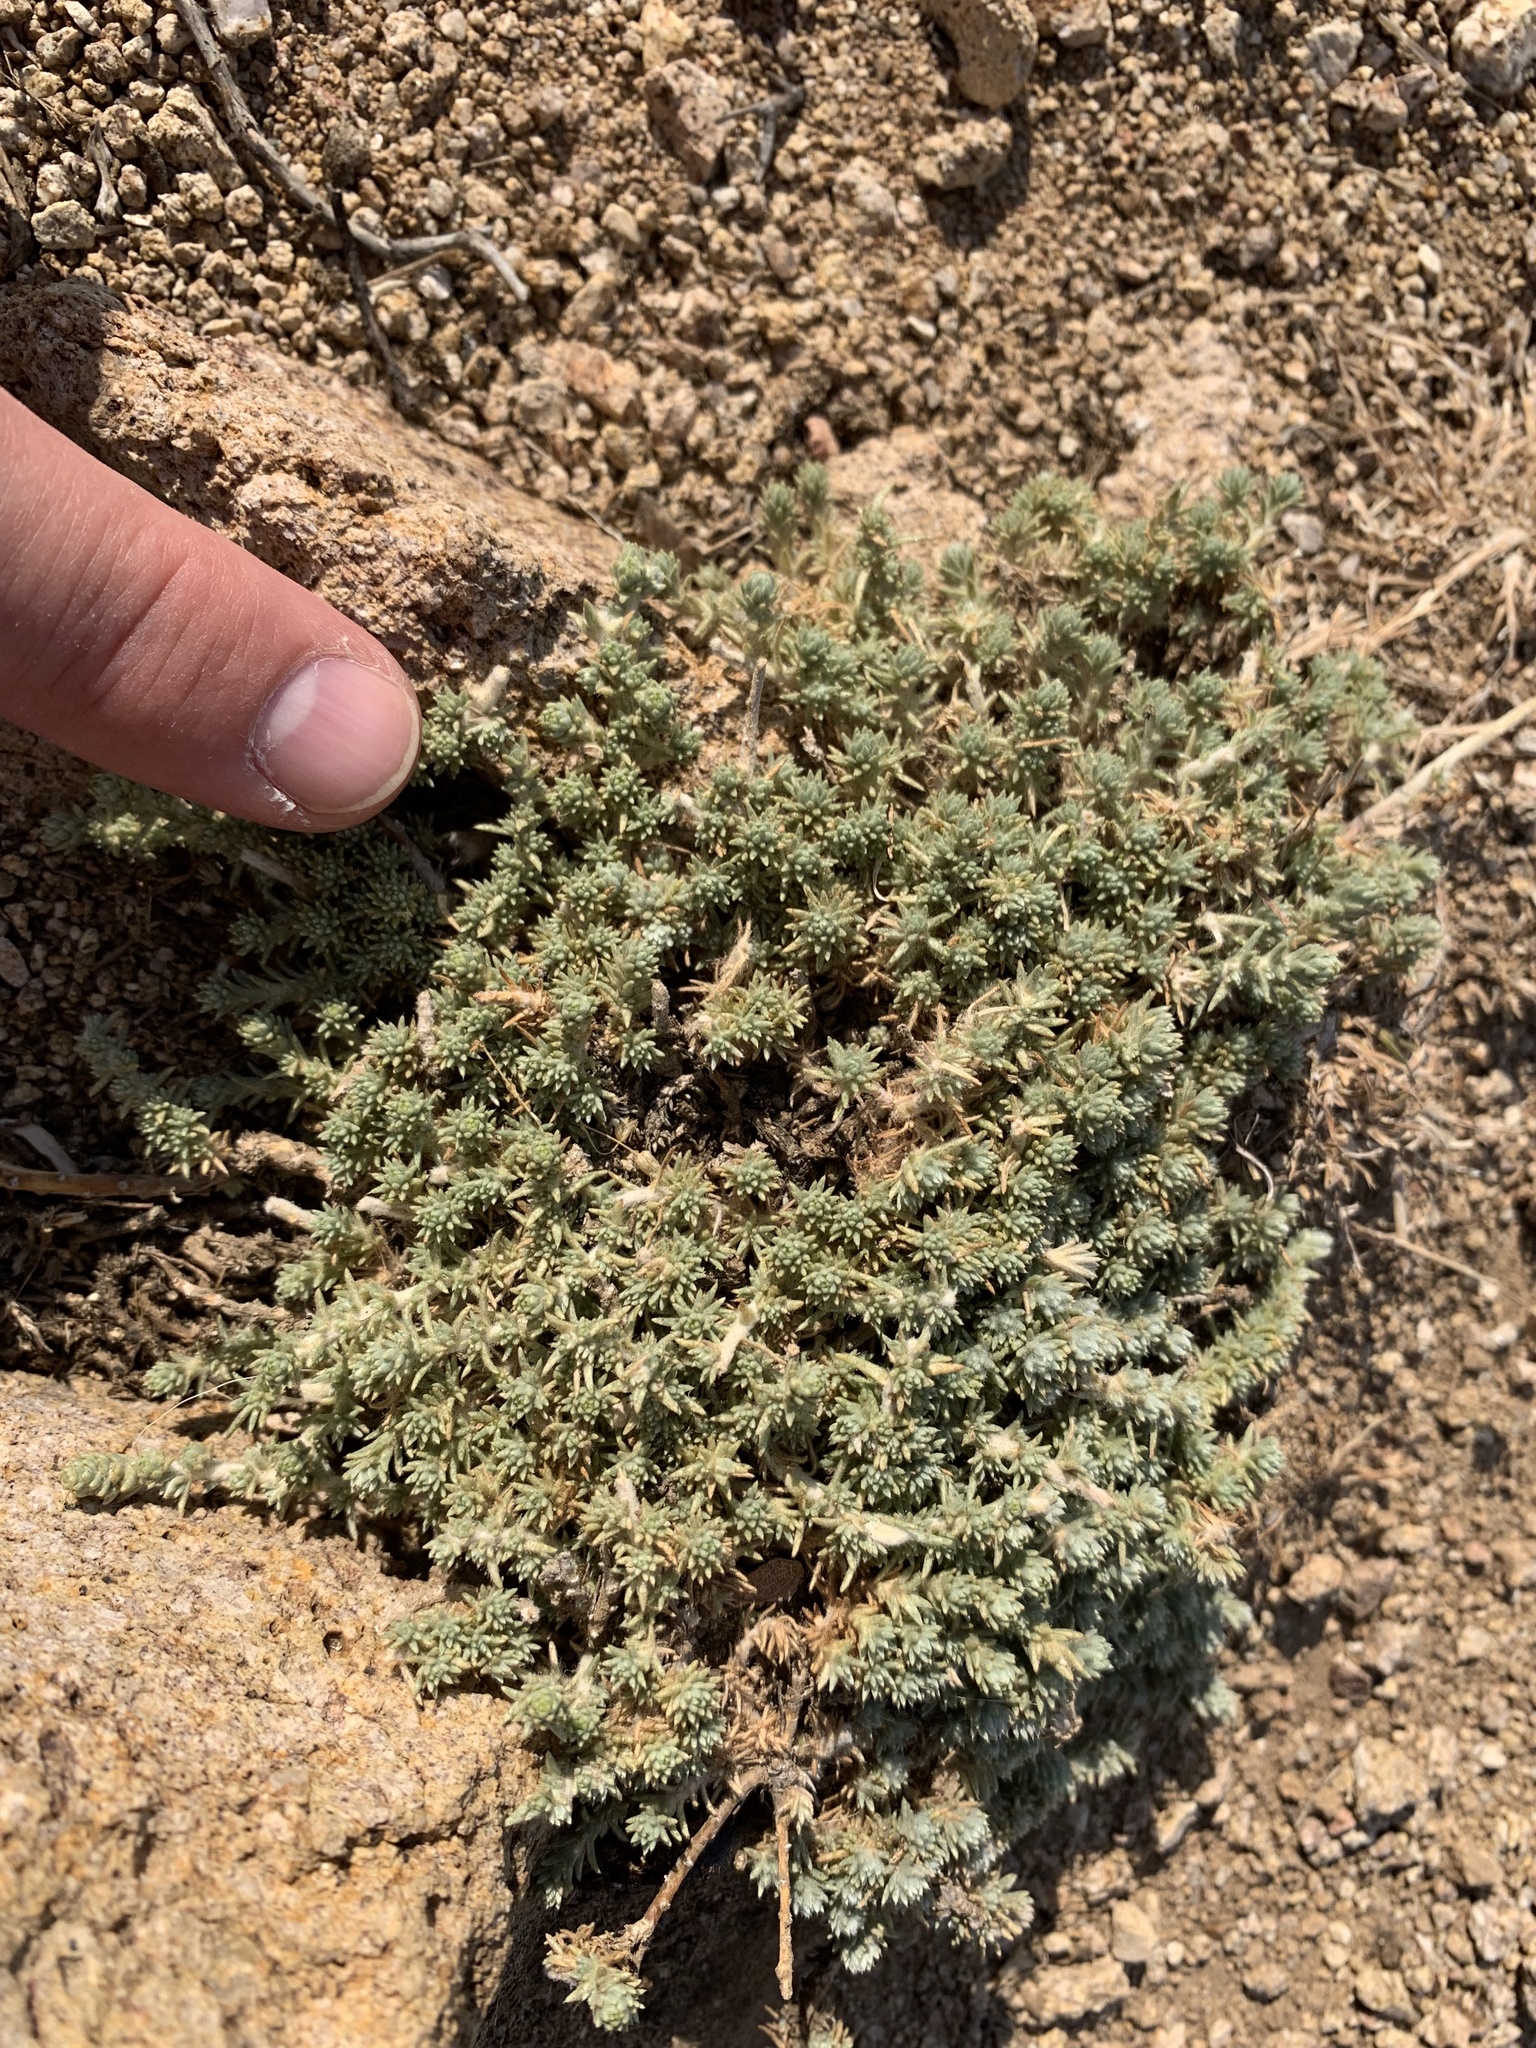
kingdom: Plantae
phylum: Tracheophyta
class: Magnoliopsida
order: Caryophyllales
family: Amaranthaceae
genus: Camphorosma
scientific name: Camphorosma monspeliaca
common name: Camphorfume
